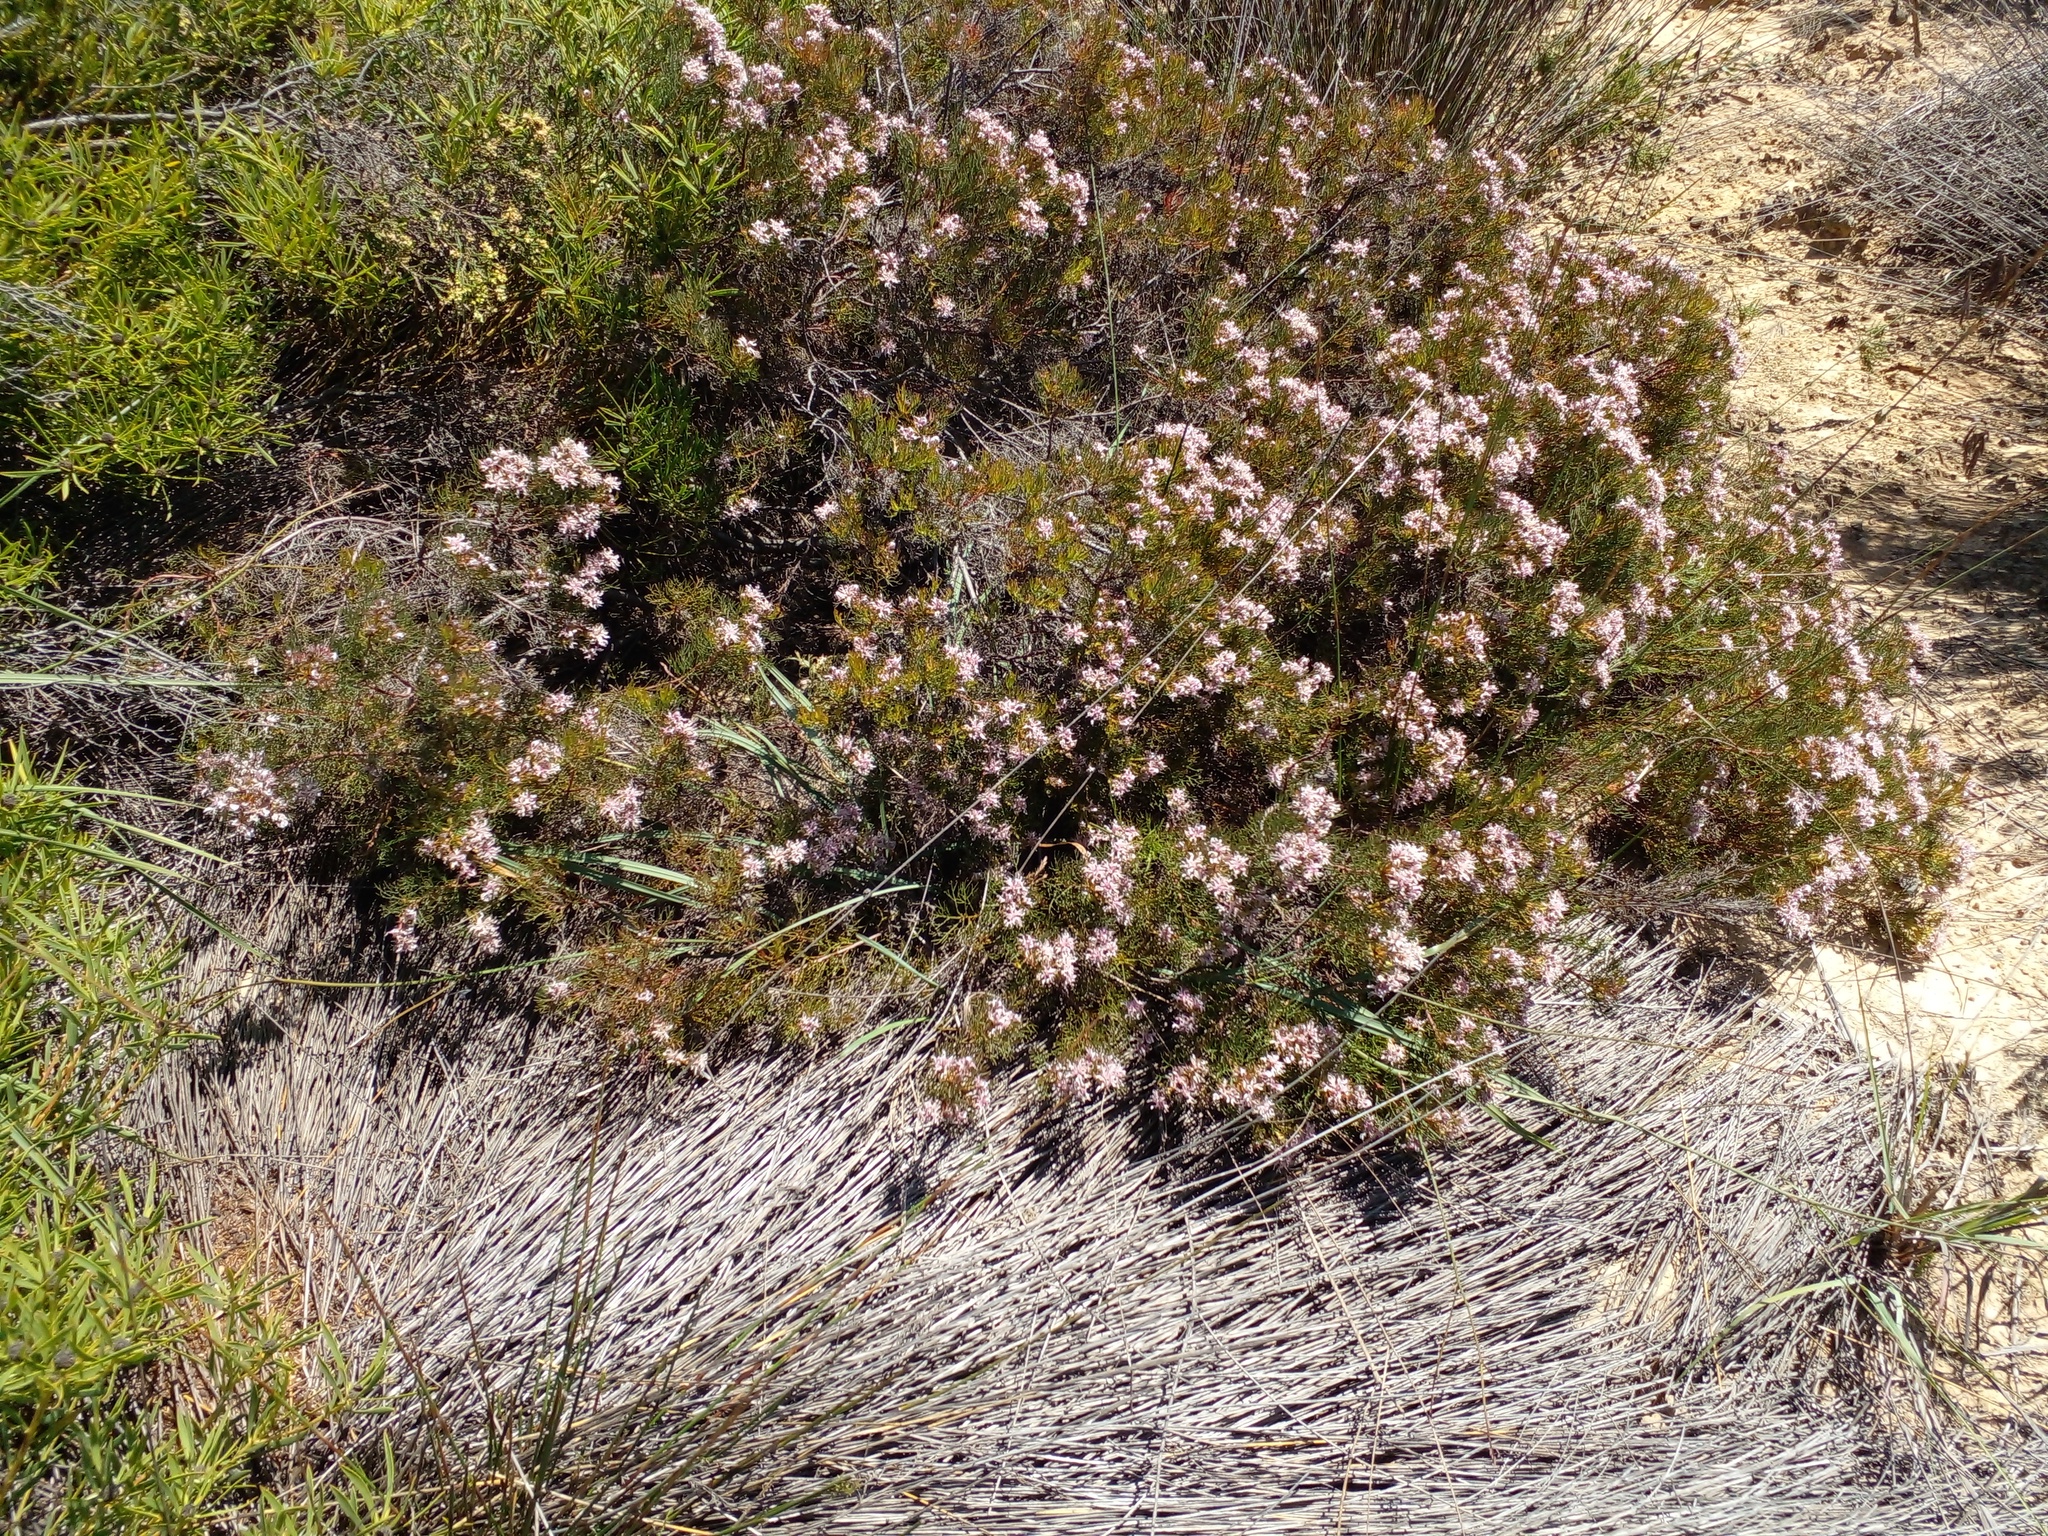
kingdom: Plantae
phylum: Tracheophyta
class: Magnoliopsida
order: Proteales
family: Proteaceae
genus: Serruria
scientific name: Serruria decipiens
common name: Sandveld spiderhead
